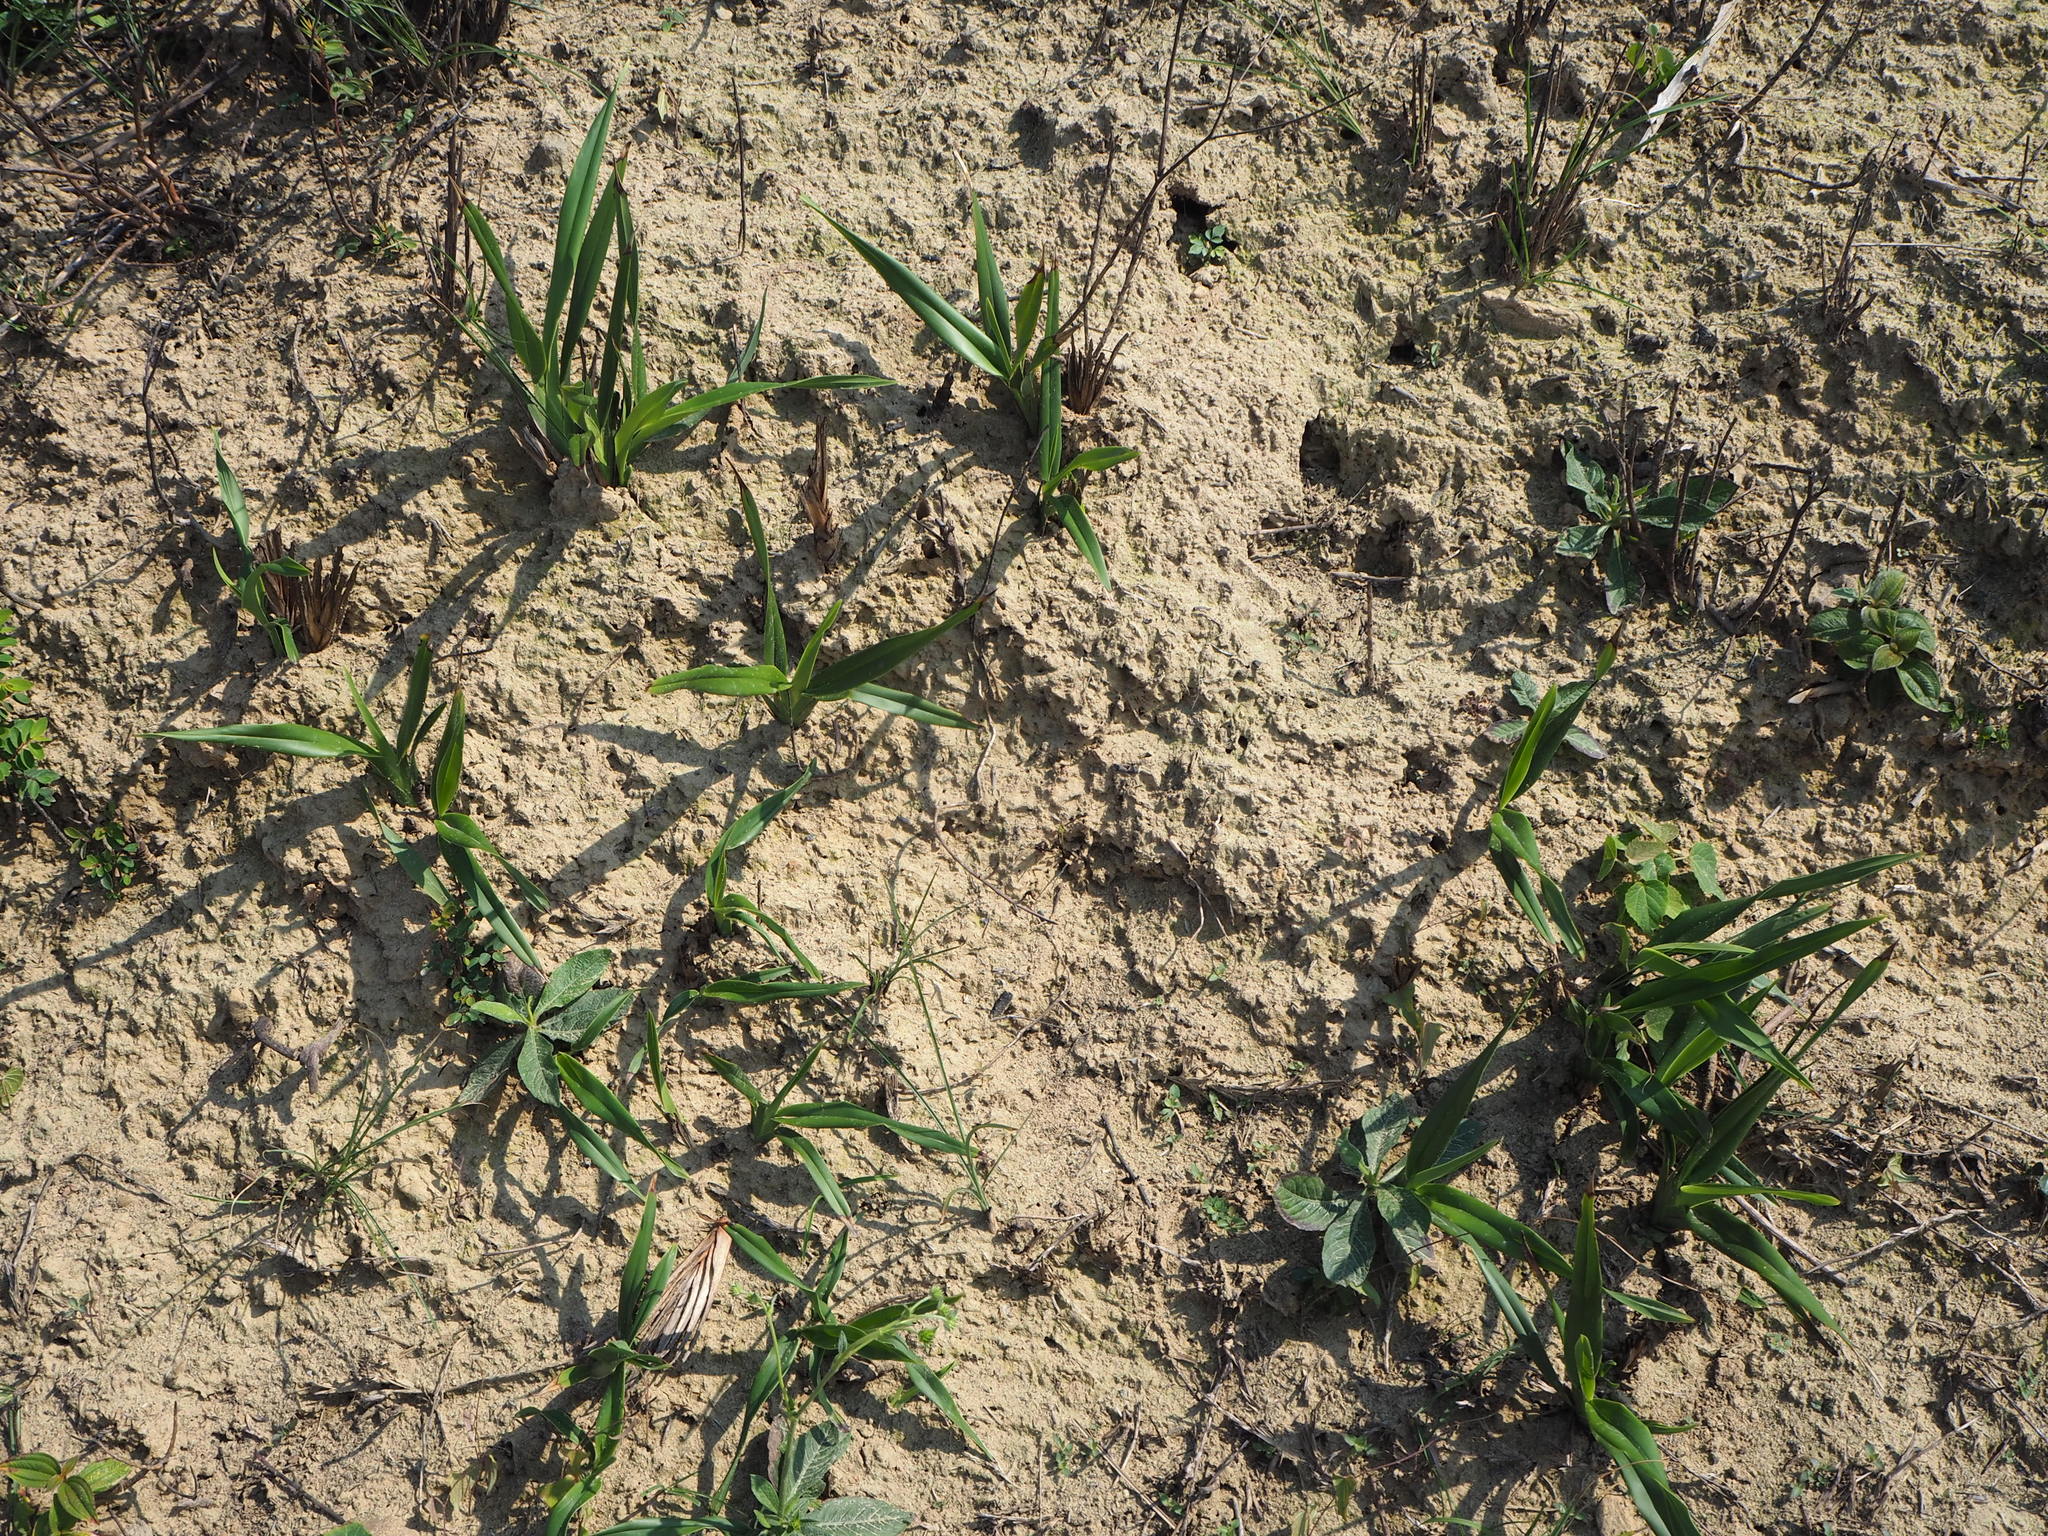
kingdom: Plantae
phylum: Tracheophyta
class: Liliopsida
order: Asparagales
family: Asphodelaceae
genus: Dianella
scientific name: Dianella ensifolia
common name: New zealand lilyplant
